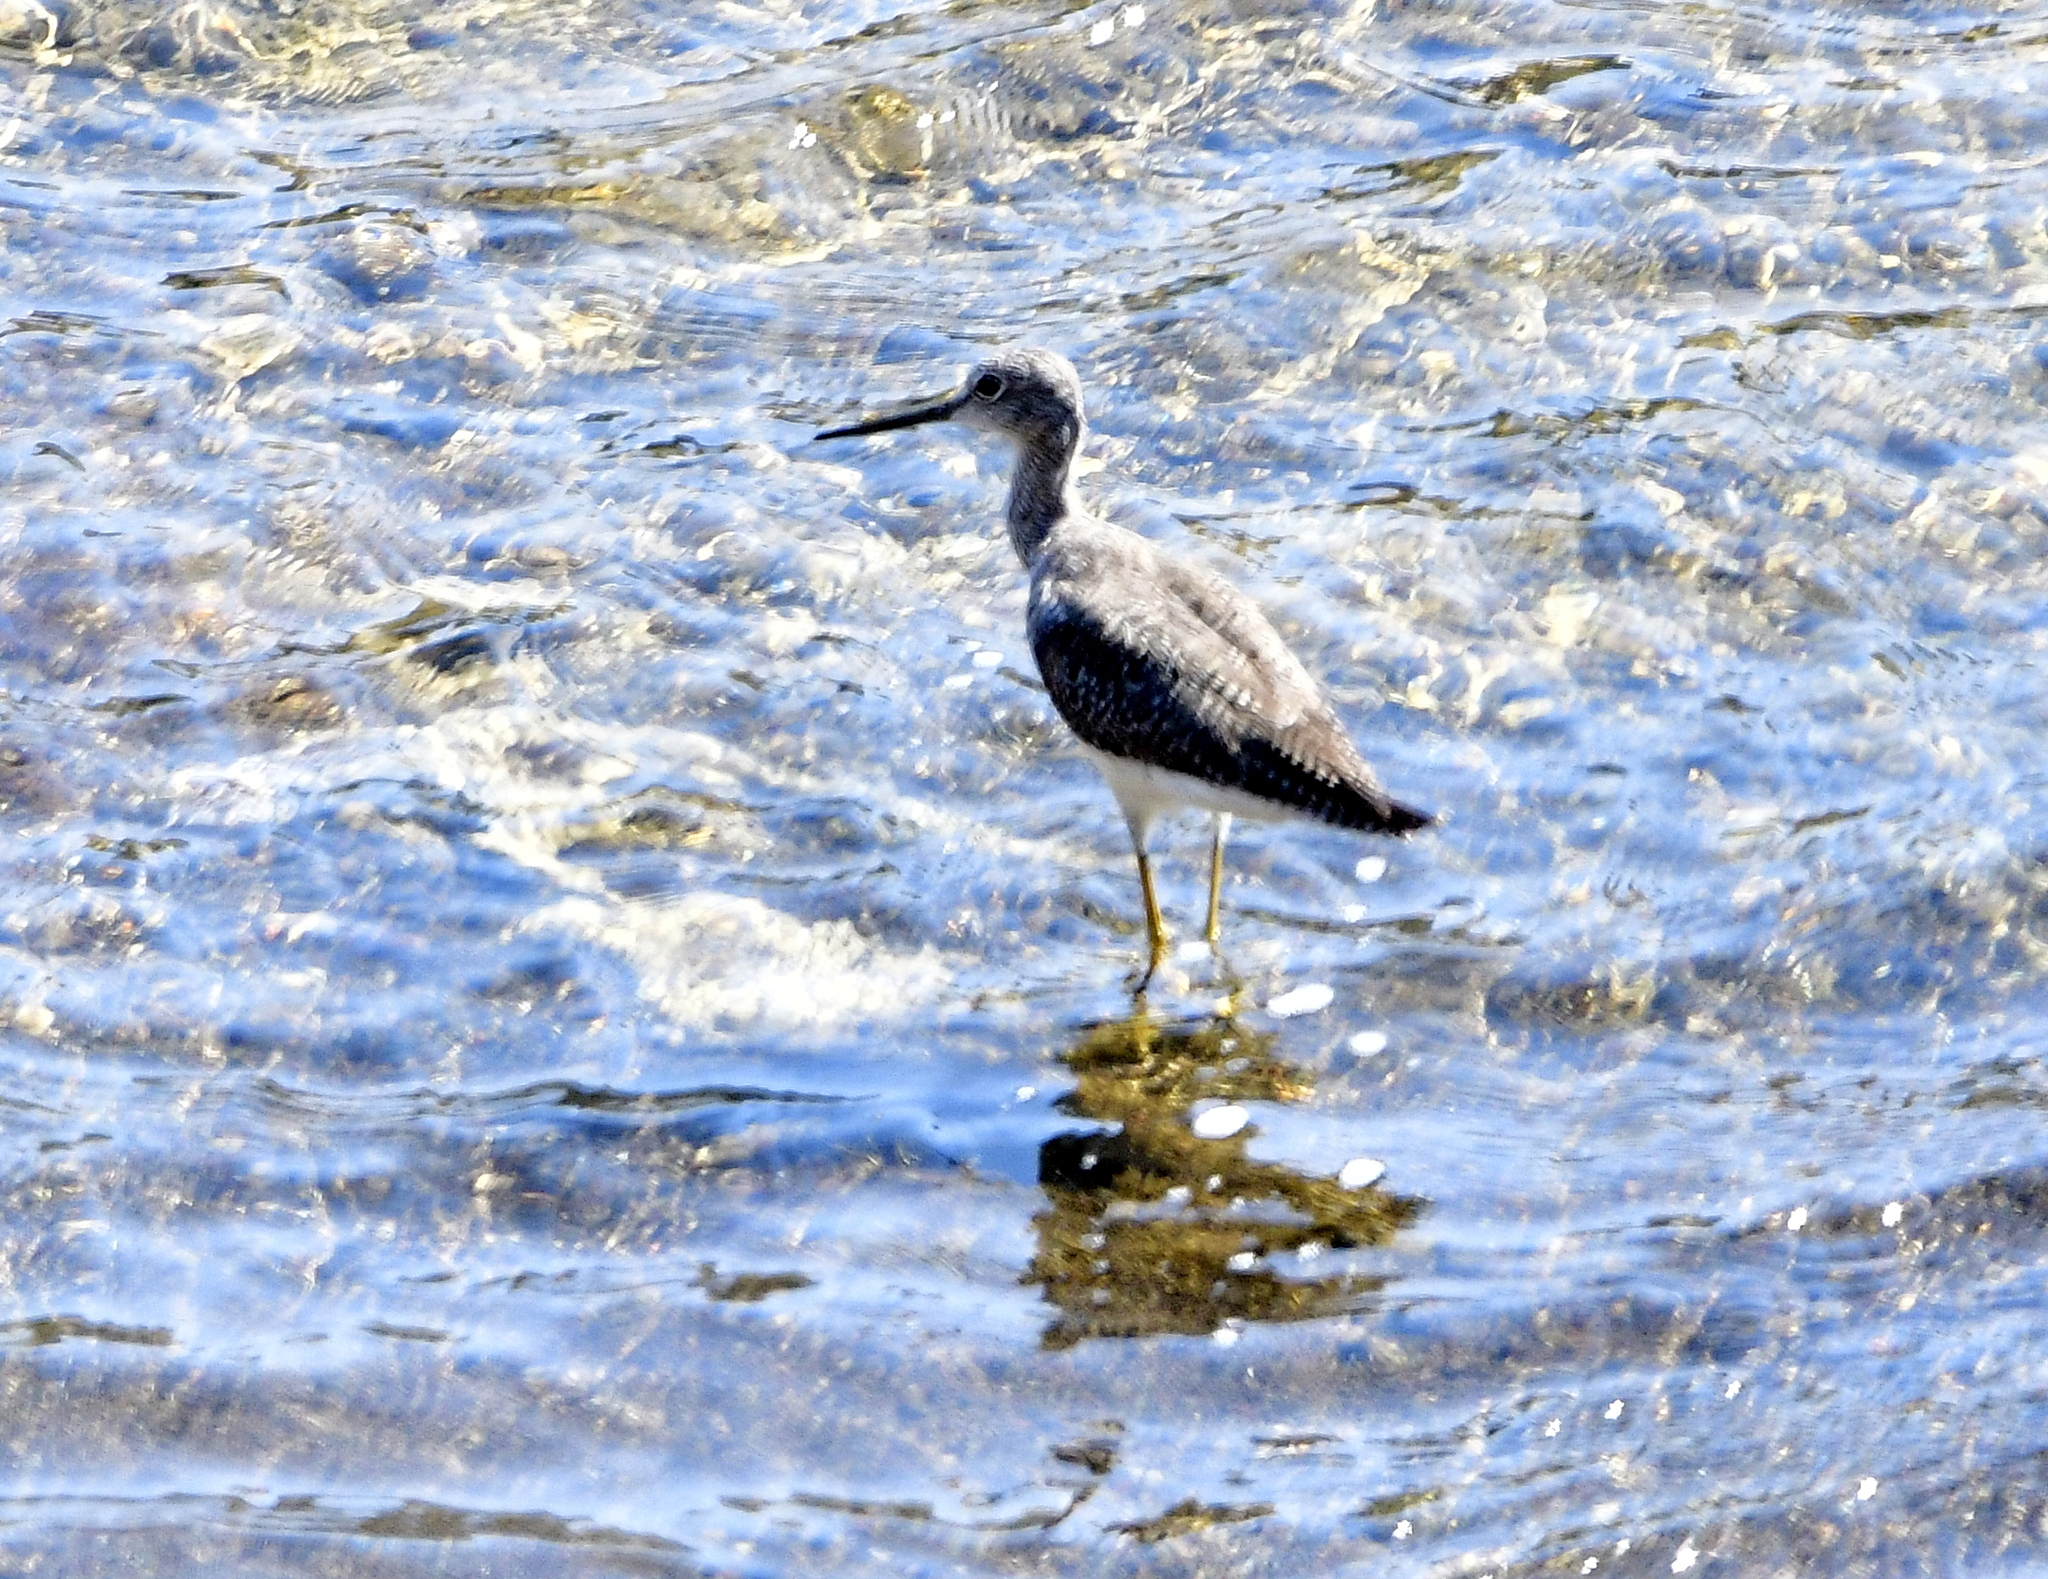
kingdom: Animalia
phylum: Chordata
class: Aves
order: Charadriiformes
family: Scolopacidae
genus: Tringa
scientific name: Tringa melanoleuca
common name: Greater yellowlegs
